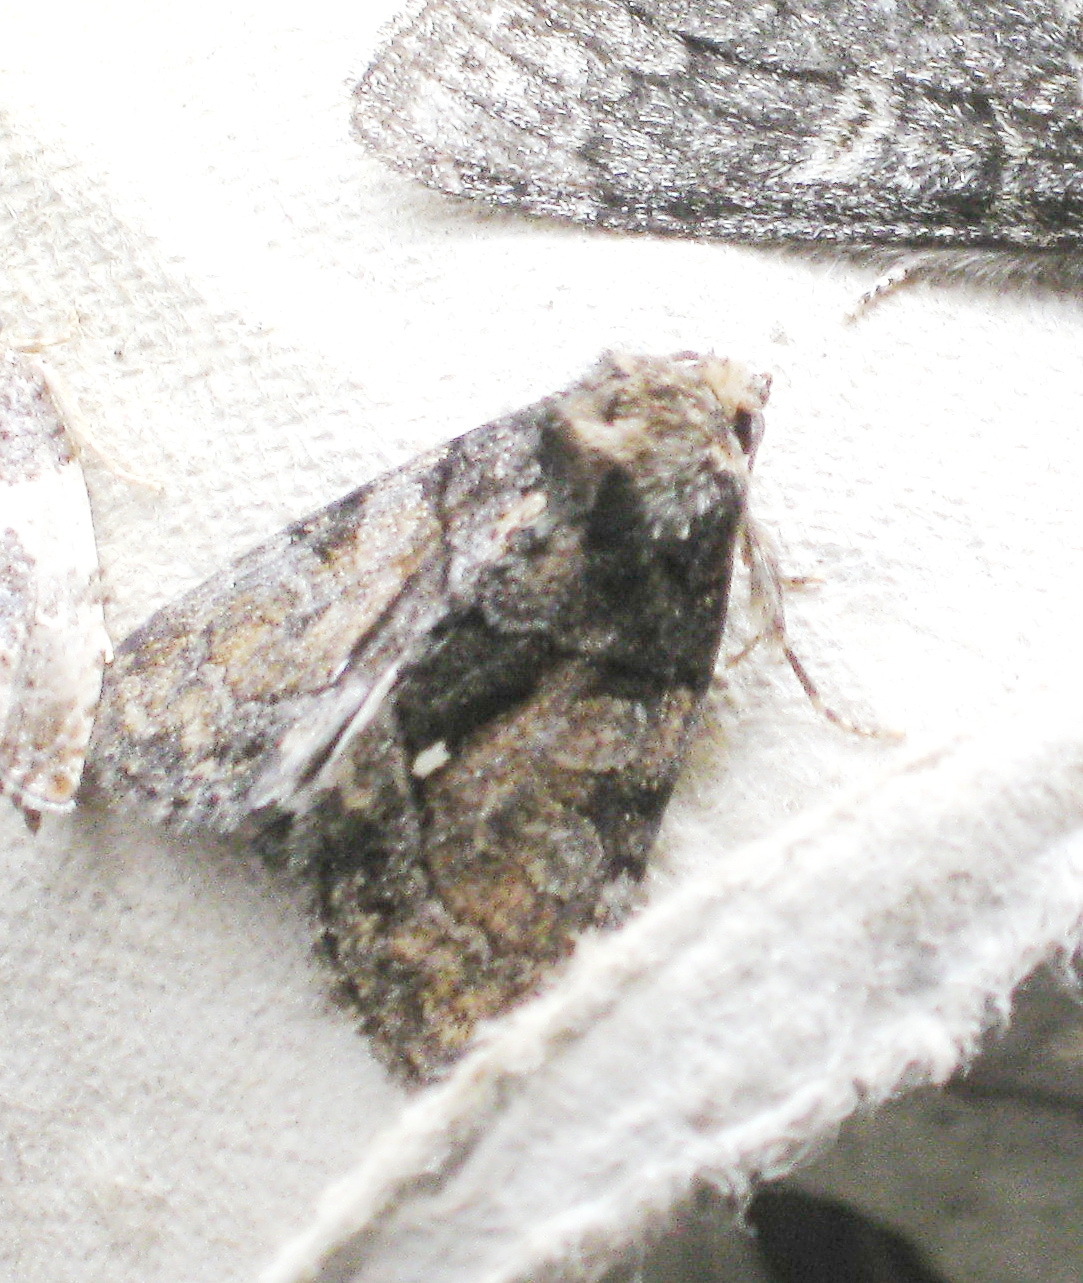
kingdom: Animalia
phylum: Arthropoda
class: Insecta
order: Lepidoptera
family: Noctuidae
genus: Chytonix
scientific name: Chytonix palliatricula
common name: Cloaked marvel
